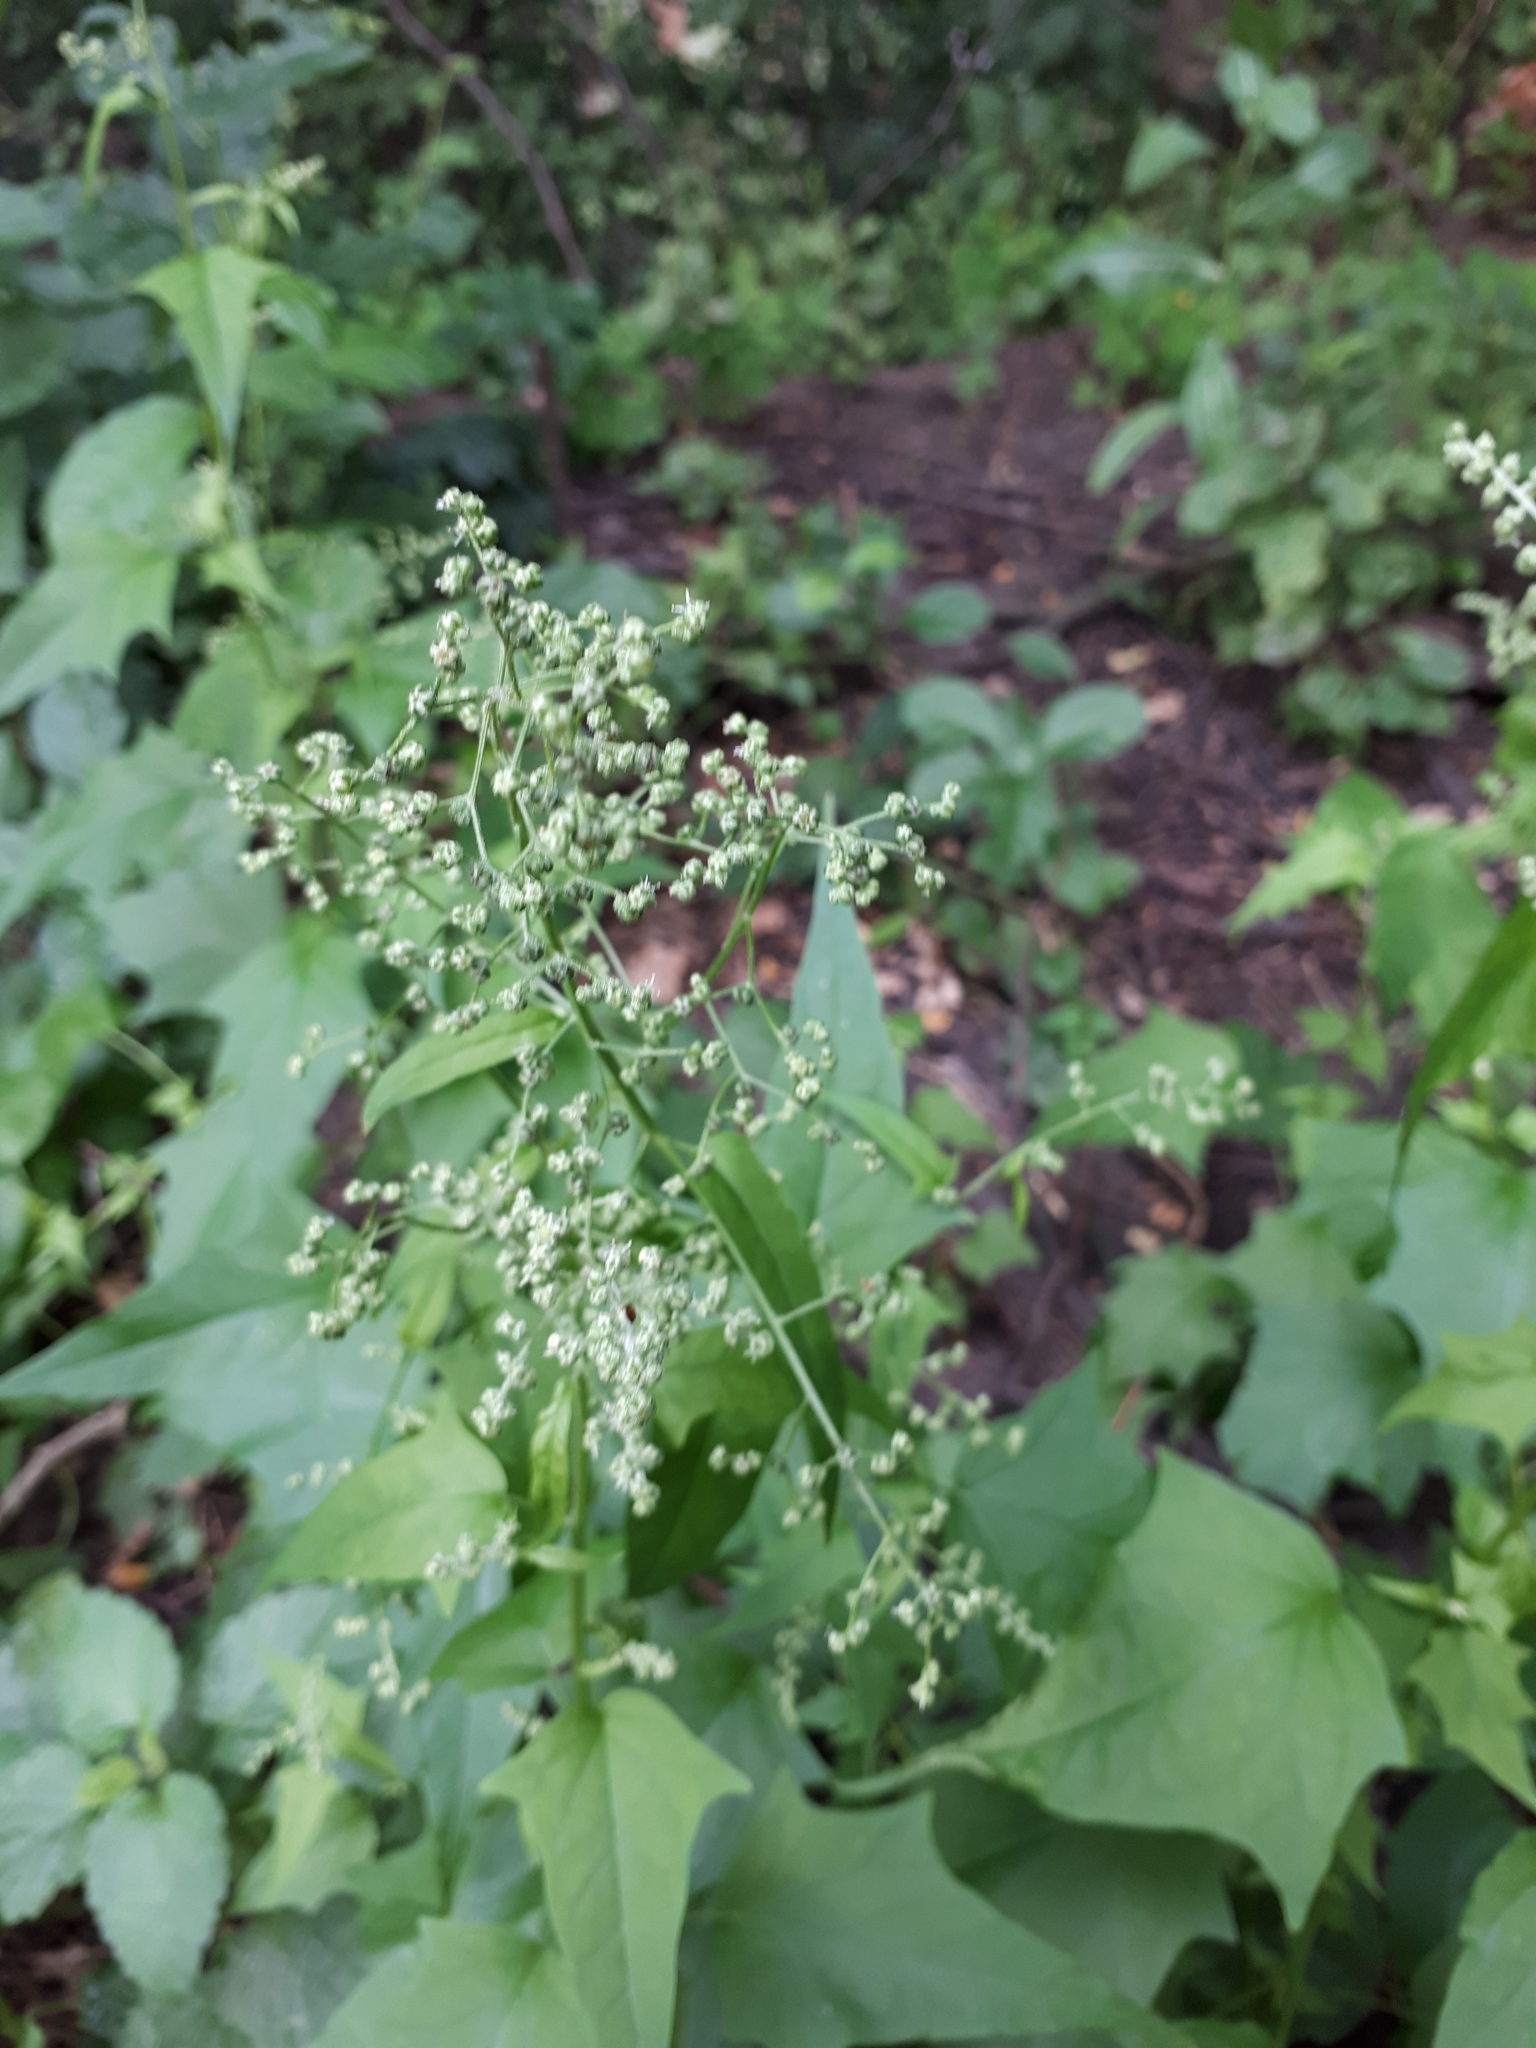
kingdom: Plantae
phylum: Tracheophyta
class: Magnoliopsida
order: Caryophyllales
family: Amaranthaceae
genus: Chenopodiastrum
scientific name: Chenopodiastrum hybridum
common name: Mapleleaf goosefoot
